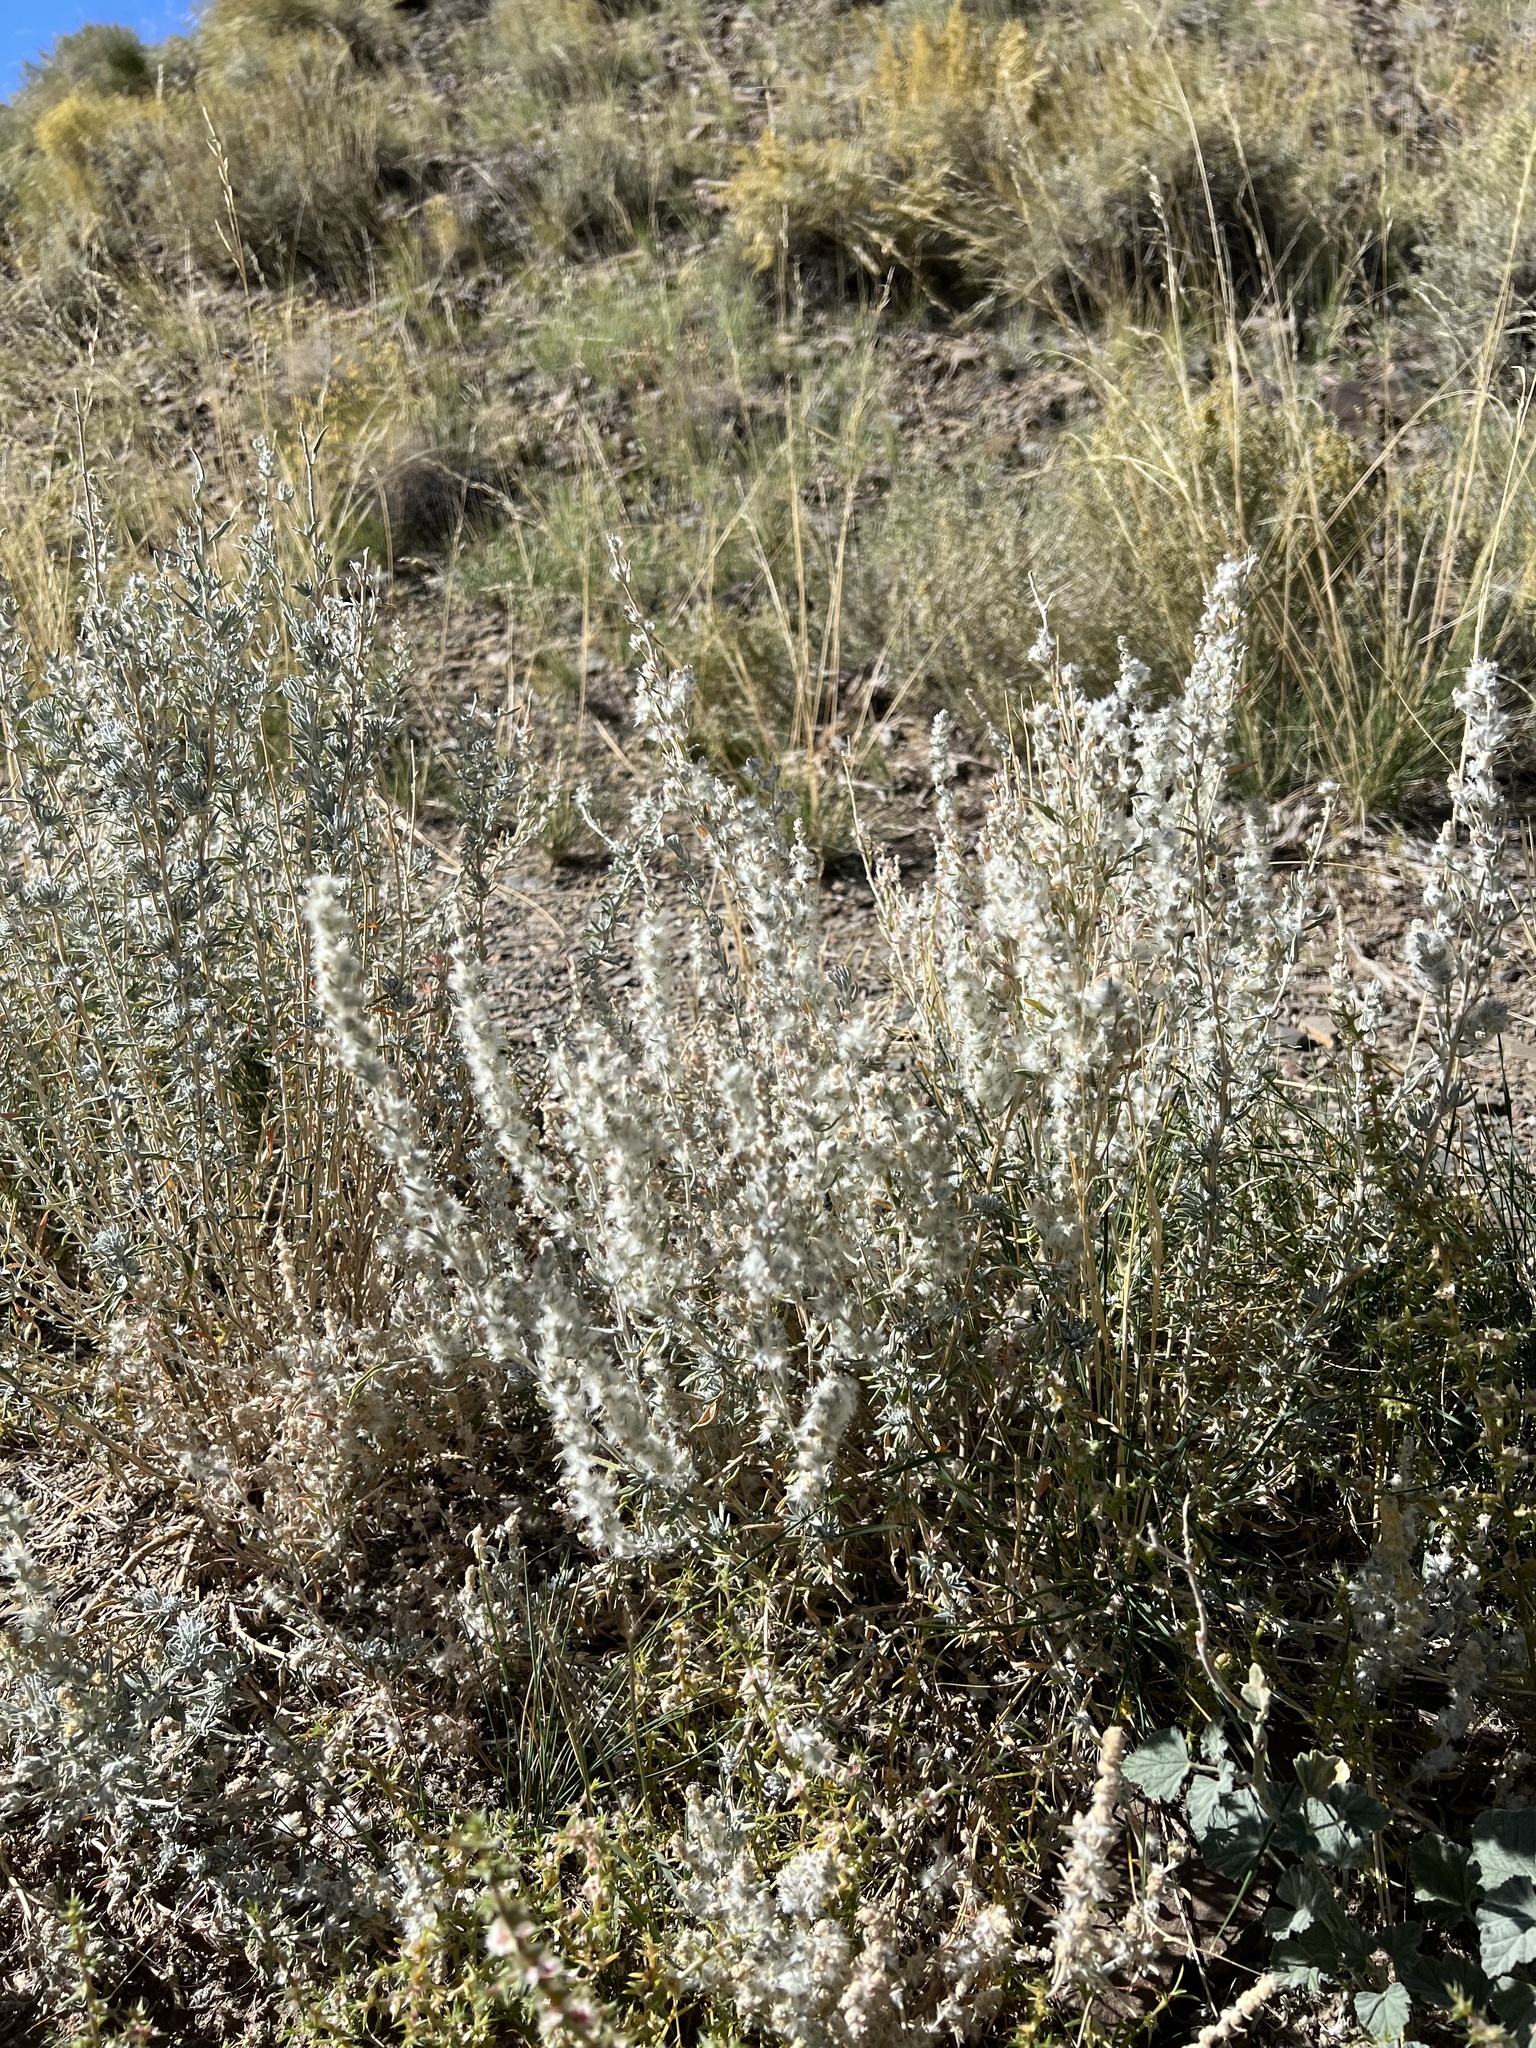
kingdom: Plantae
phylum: Tracheophyta
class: Magnoliopsida
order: Caryophyllales
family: Amaranthaceae
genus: Krascheninnikovia
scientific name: Krascheninnikovia lanata
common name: Winterfat
